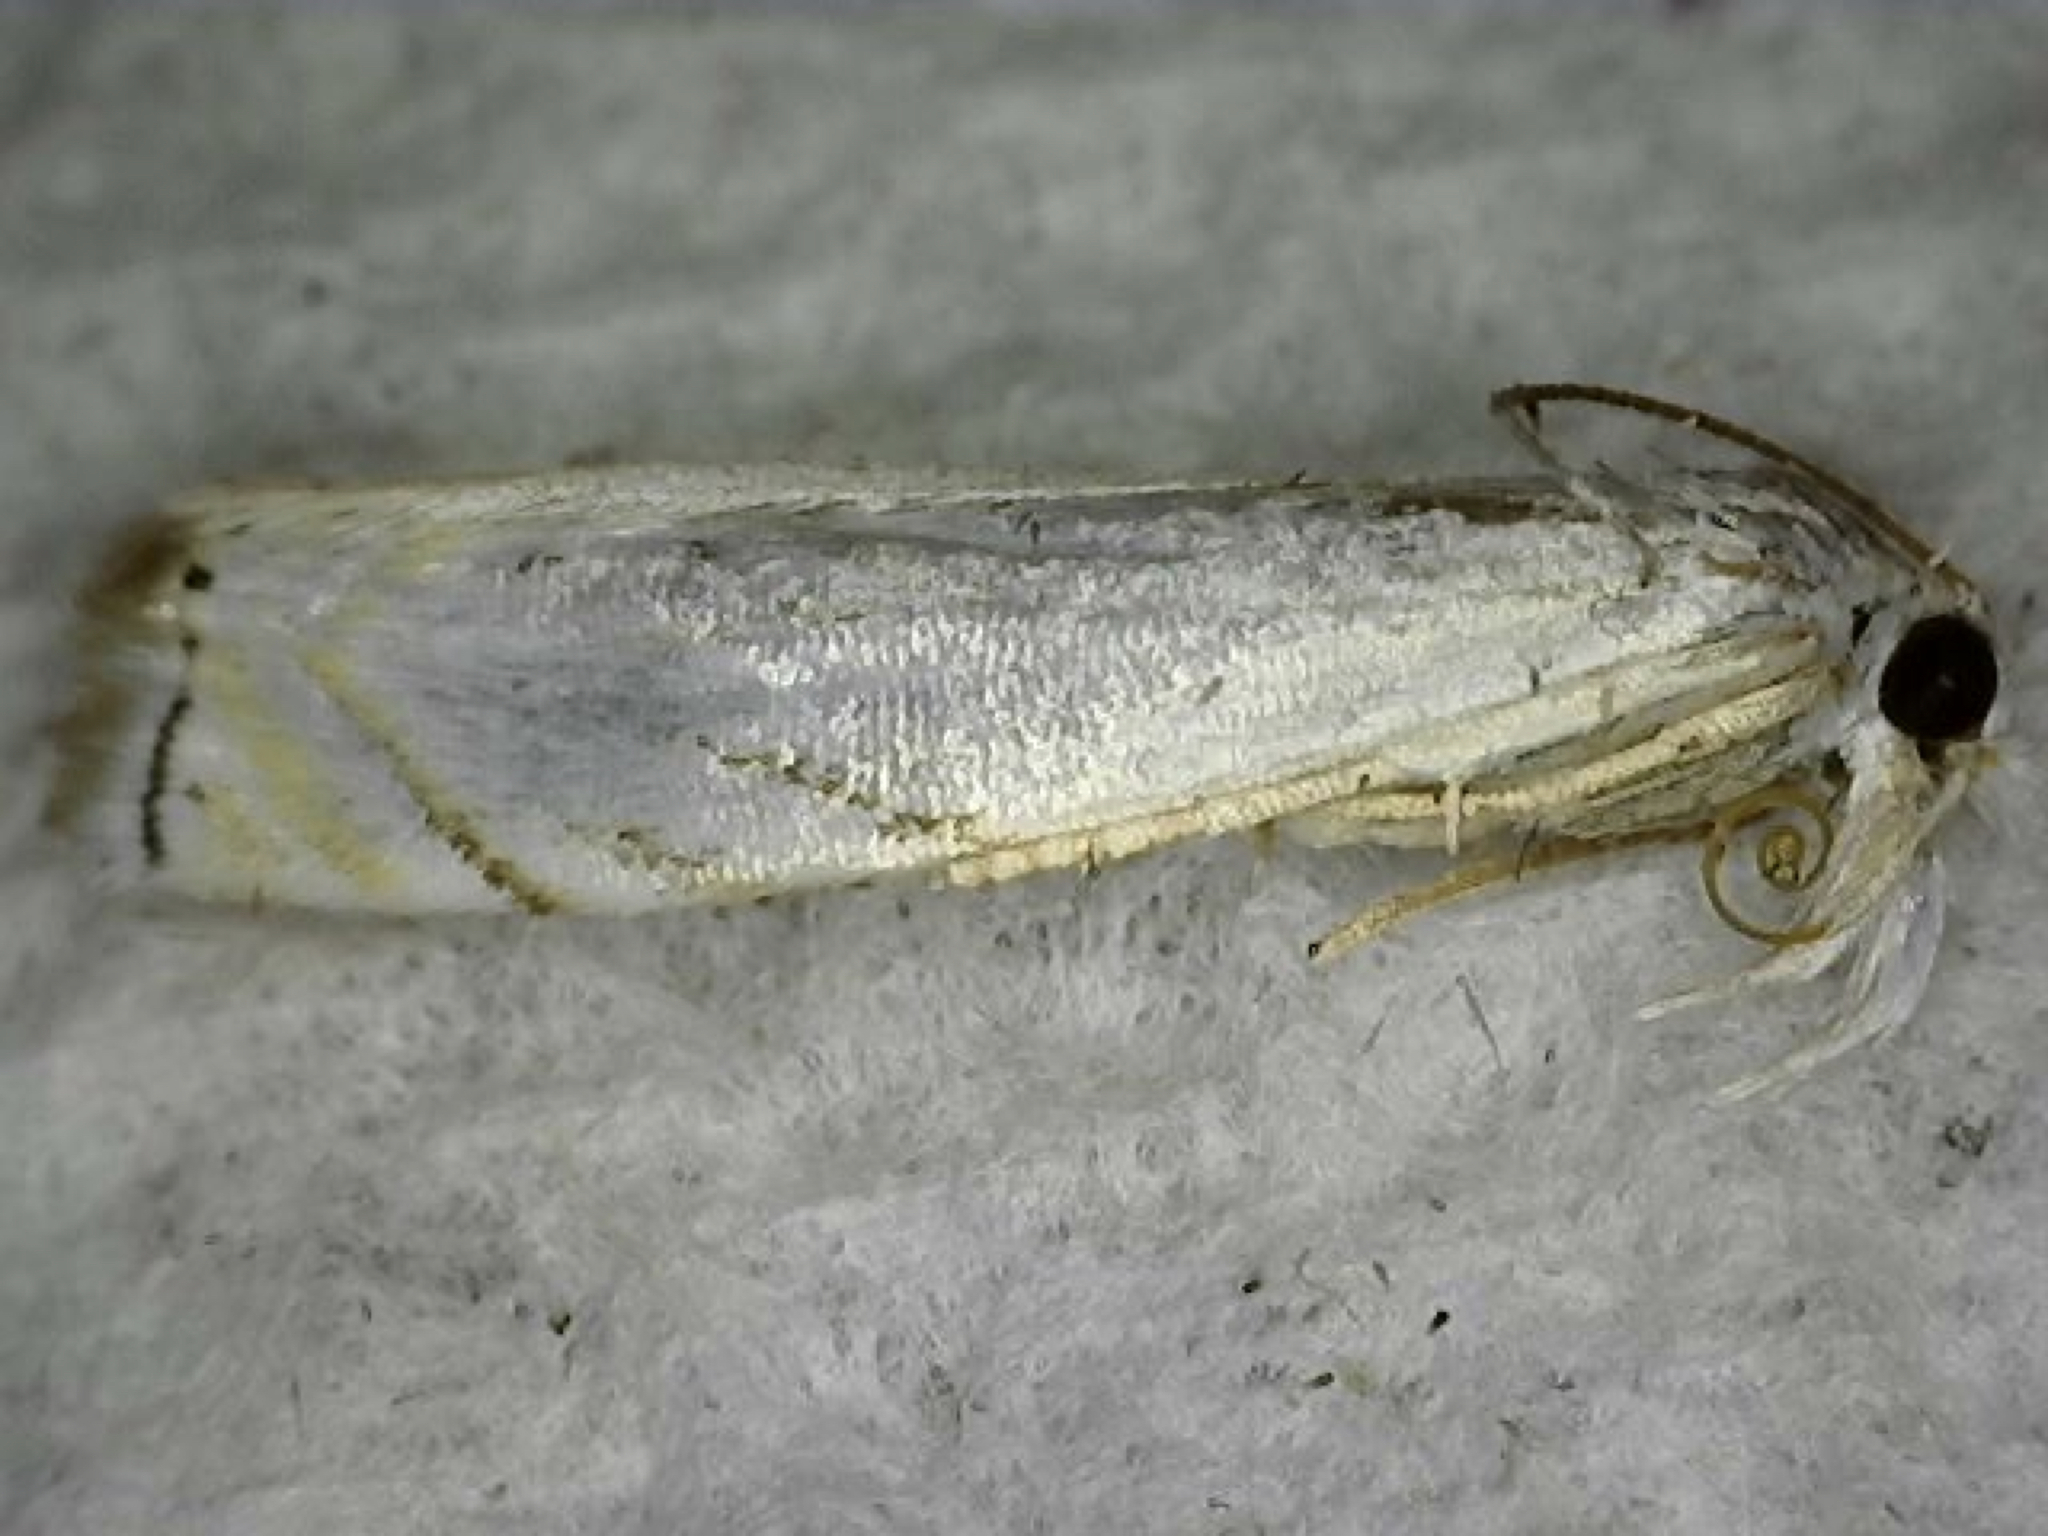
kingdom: Animalia
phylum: Arthropoda
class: Insecta
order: Lepidoptera
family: Crambidae
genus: Crambus
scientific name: Crambus albellus
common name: Small white grass-veneer
